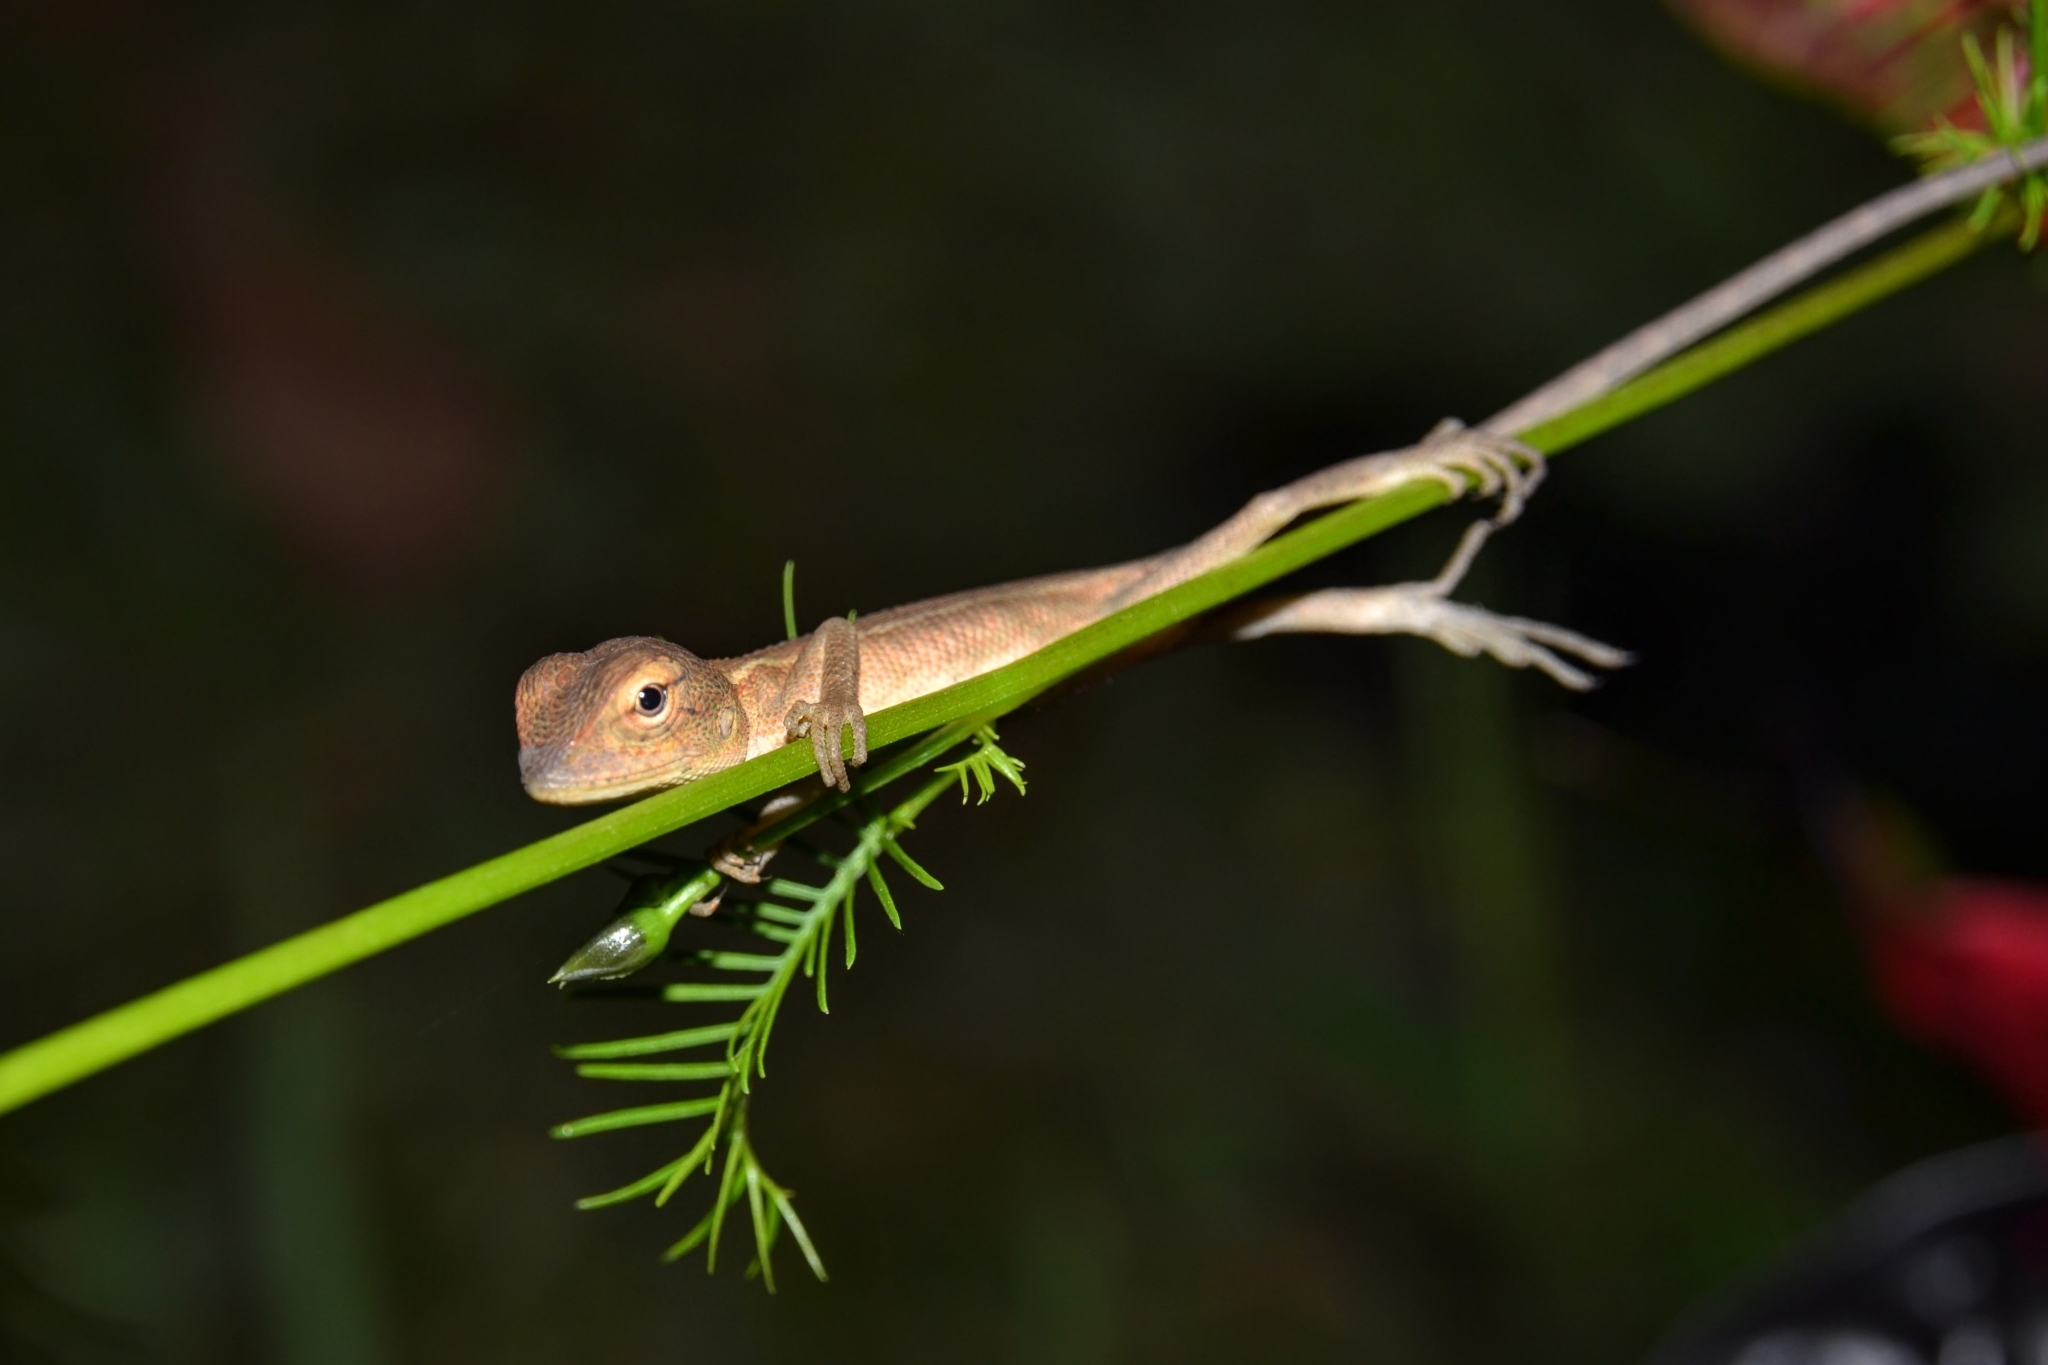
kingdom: Animalia
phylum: Chordata
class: Squamata
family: Agamidae
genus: Calotes
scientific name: Calotes versicolor
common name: Oriental garden lizard
